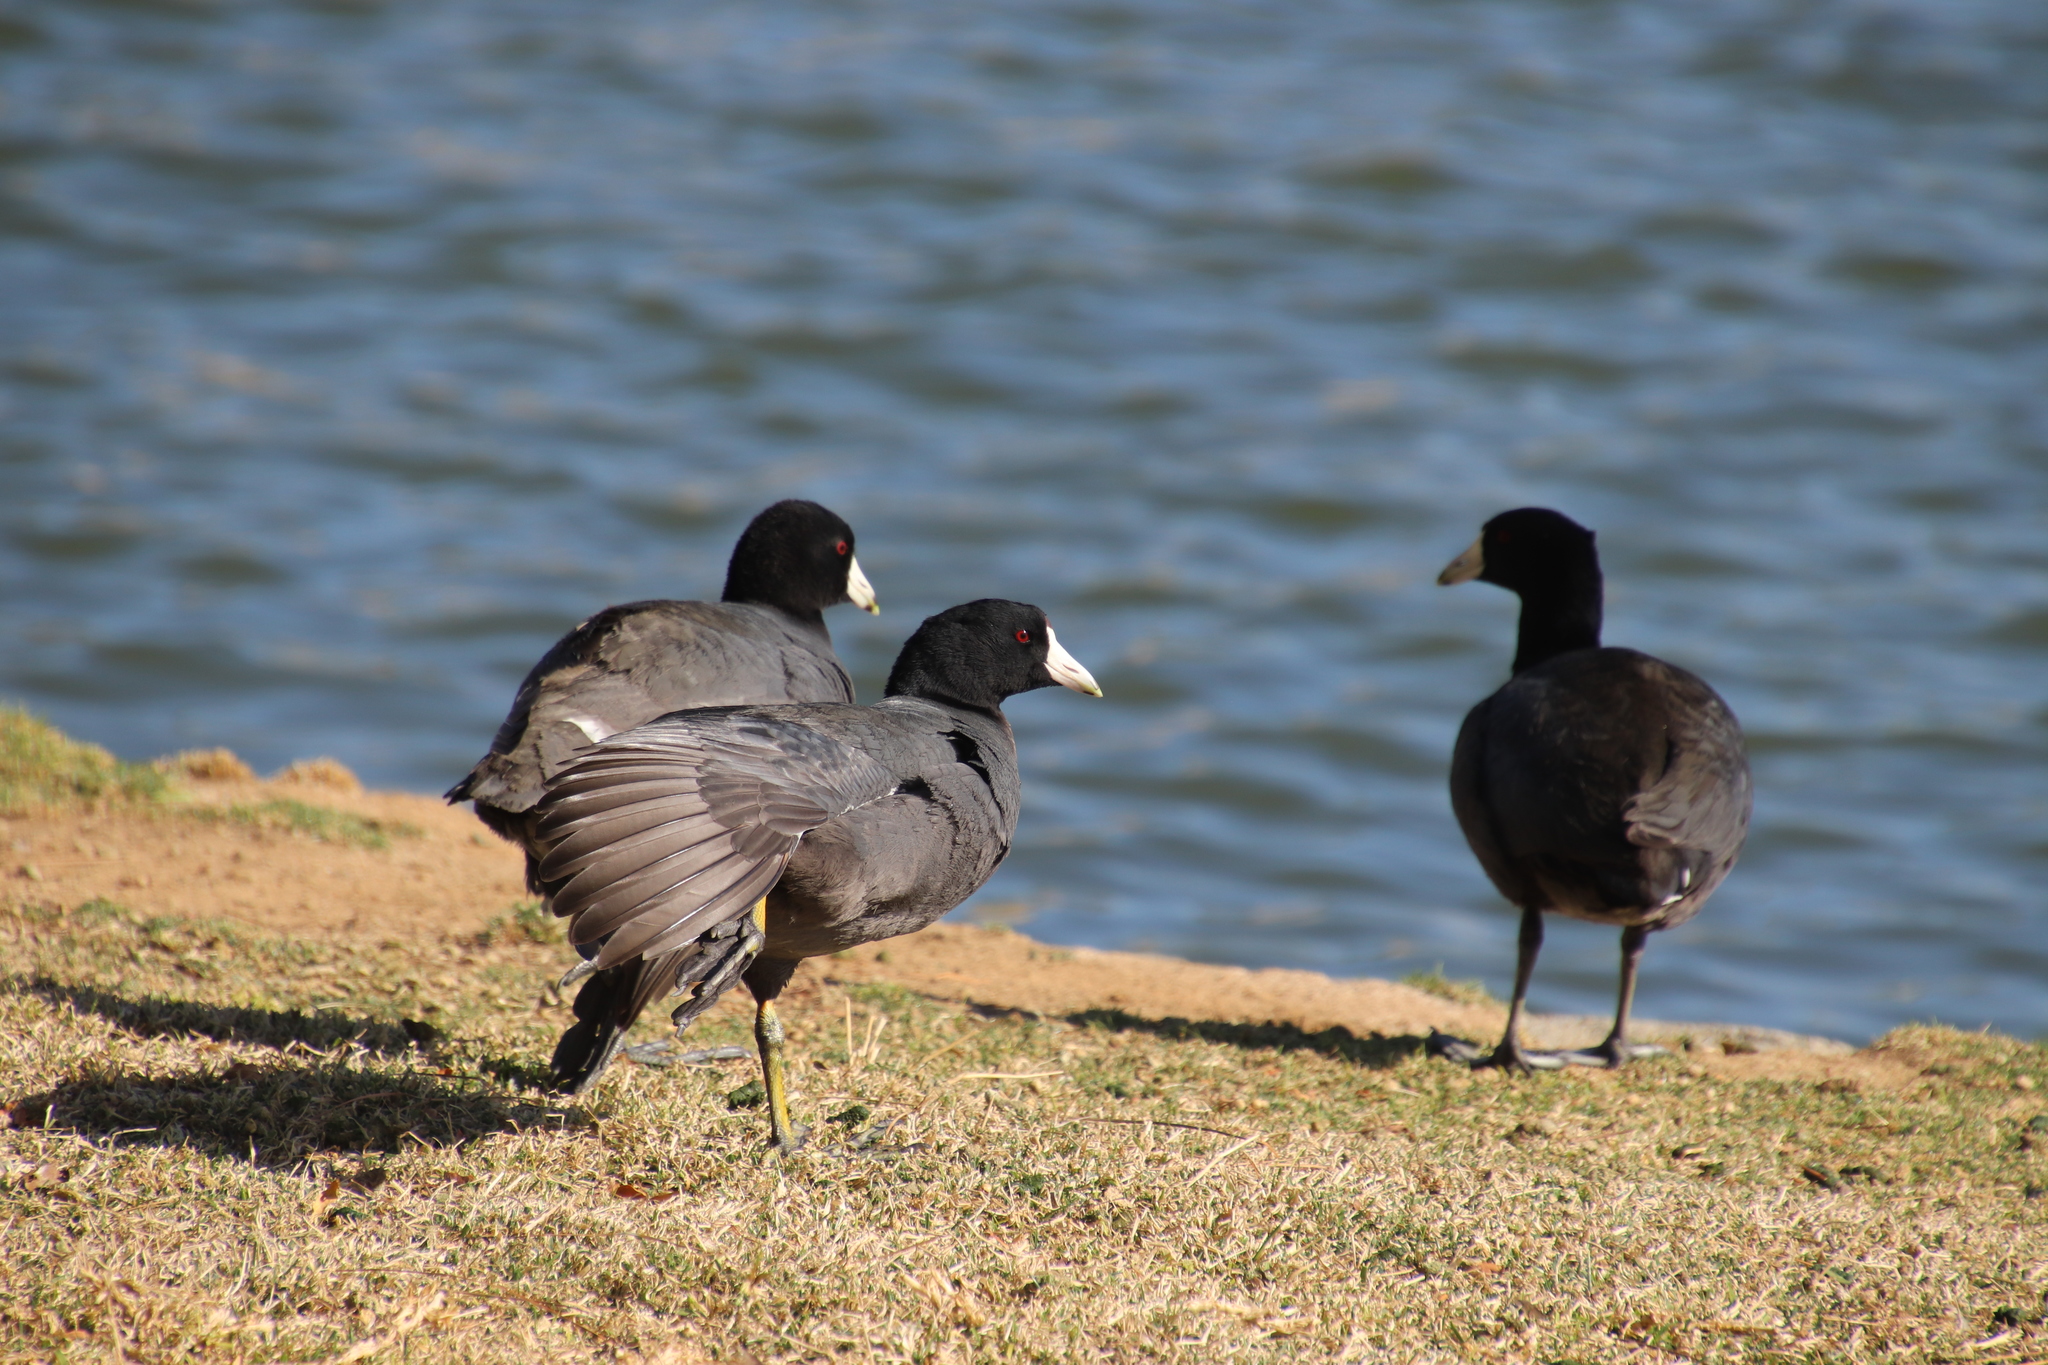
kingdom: Animalia
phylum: Chordata
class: Aves
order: Gruiformes
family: Rallidae
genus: Fulica
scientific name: Fulica americana
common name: American coot
